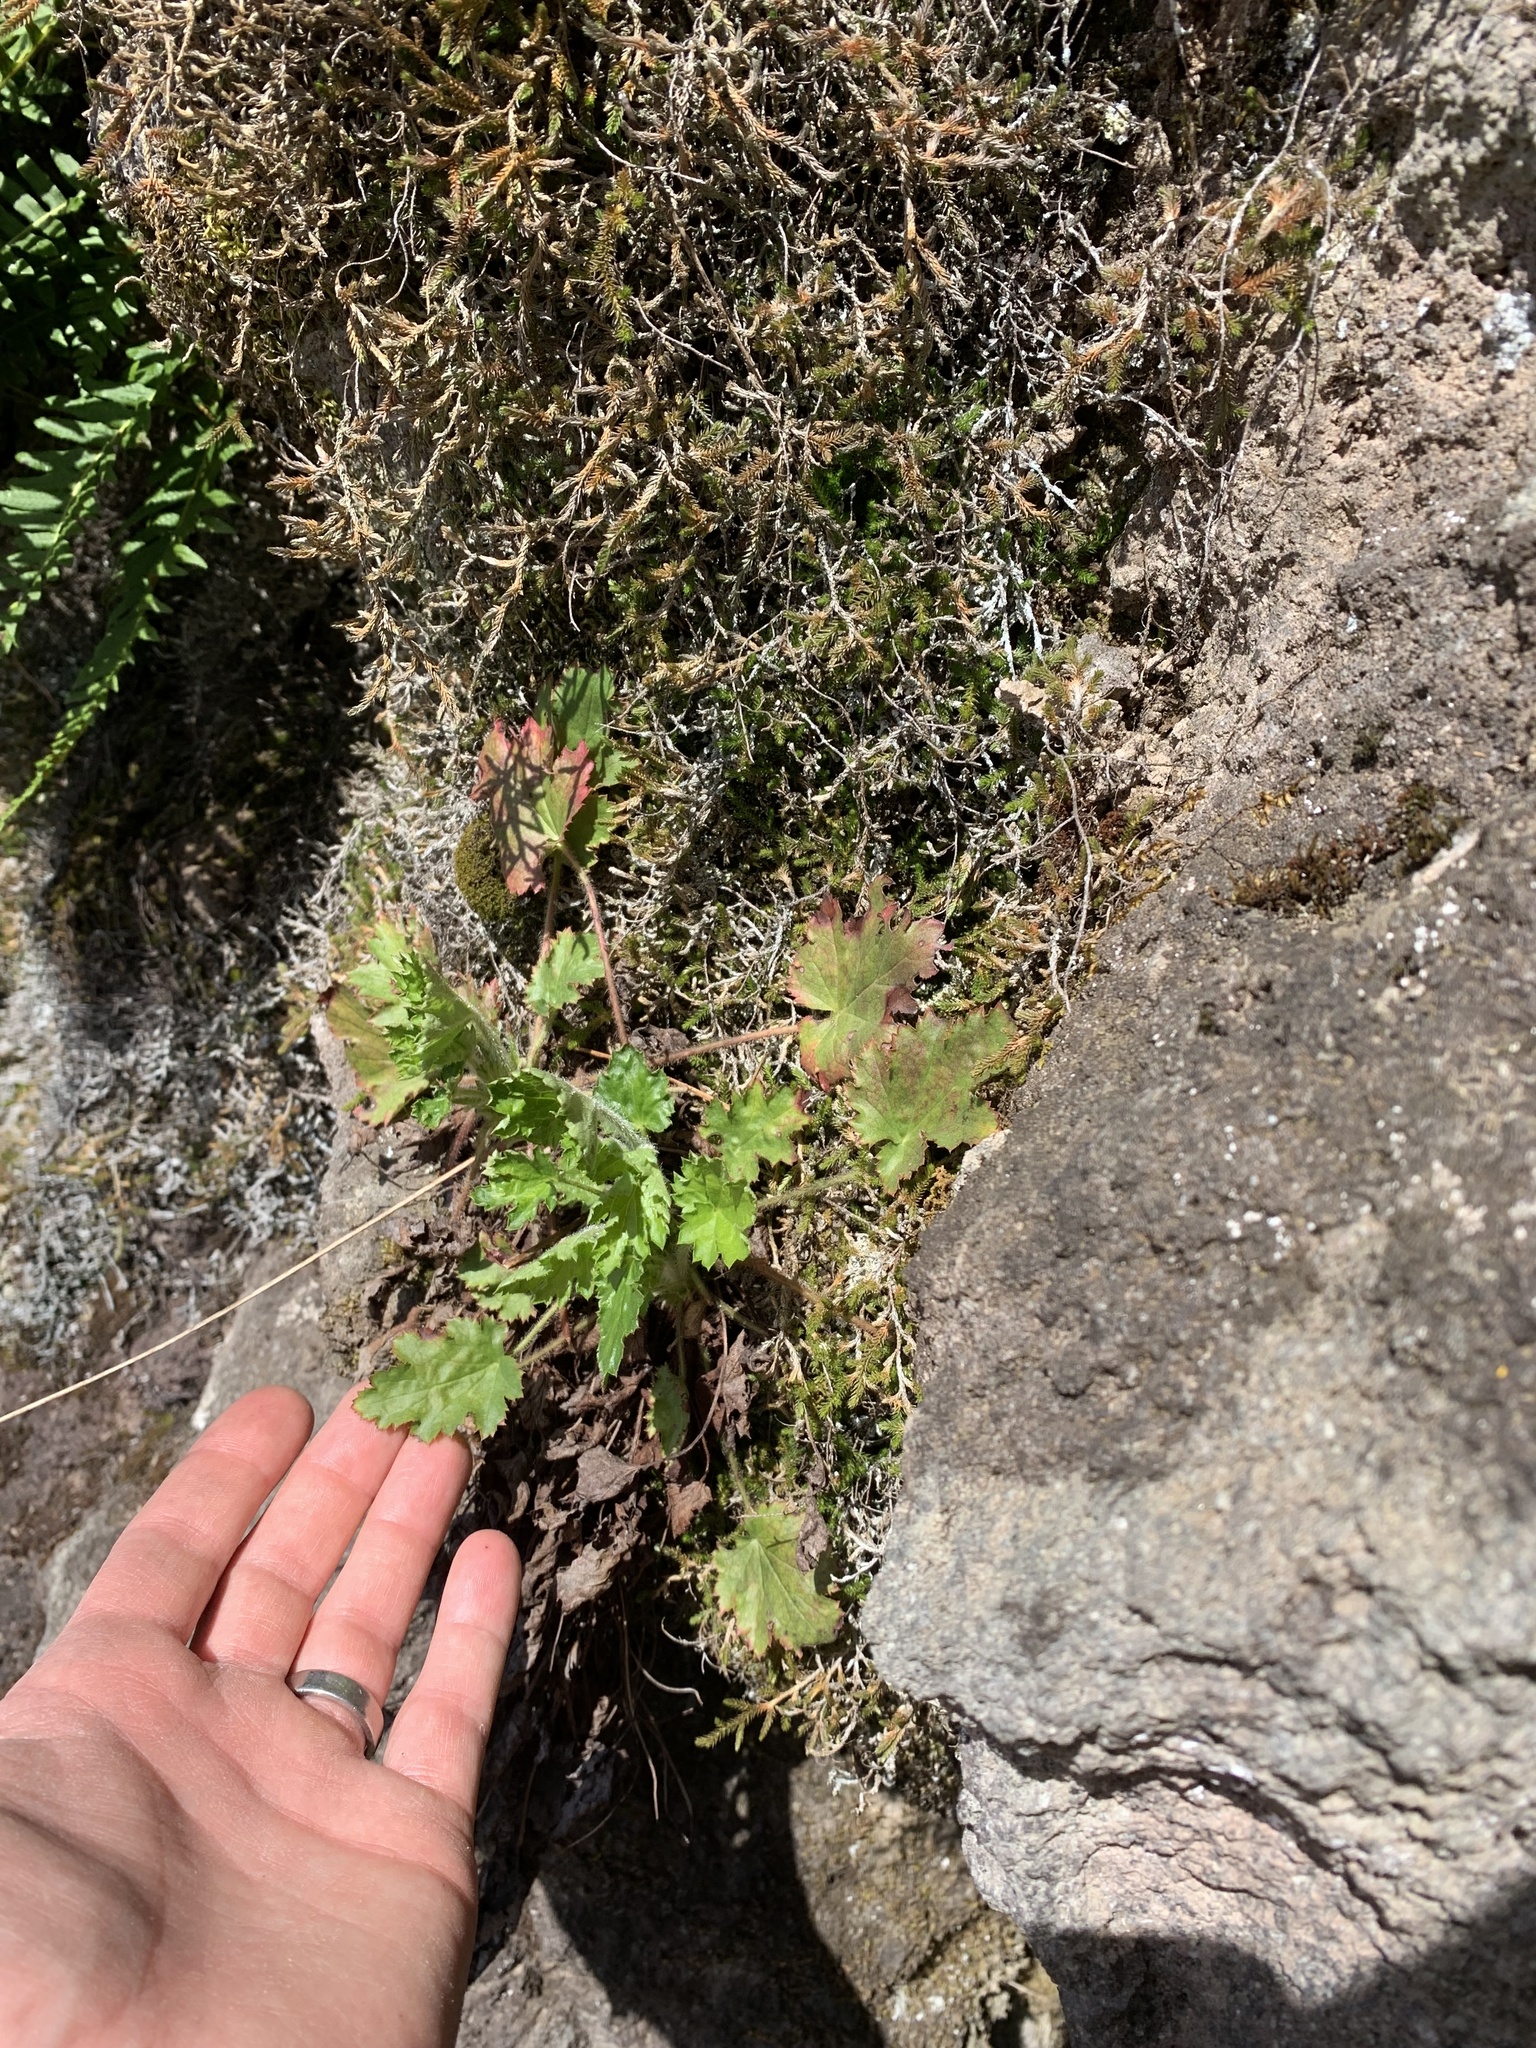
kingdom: Plantae
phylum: Tracheophyta
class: Magnoliopsida
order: Saxifragales
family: Saxifragaceae
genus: Heuchera
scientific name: Heuchera micrantha
